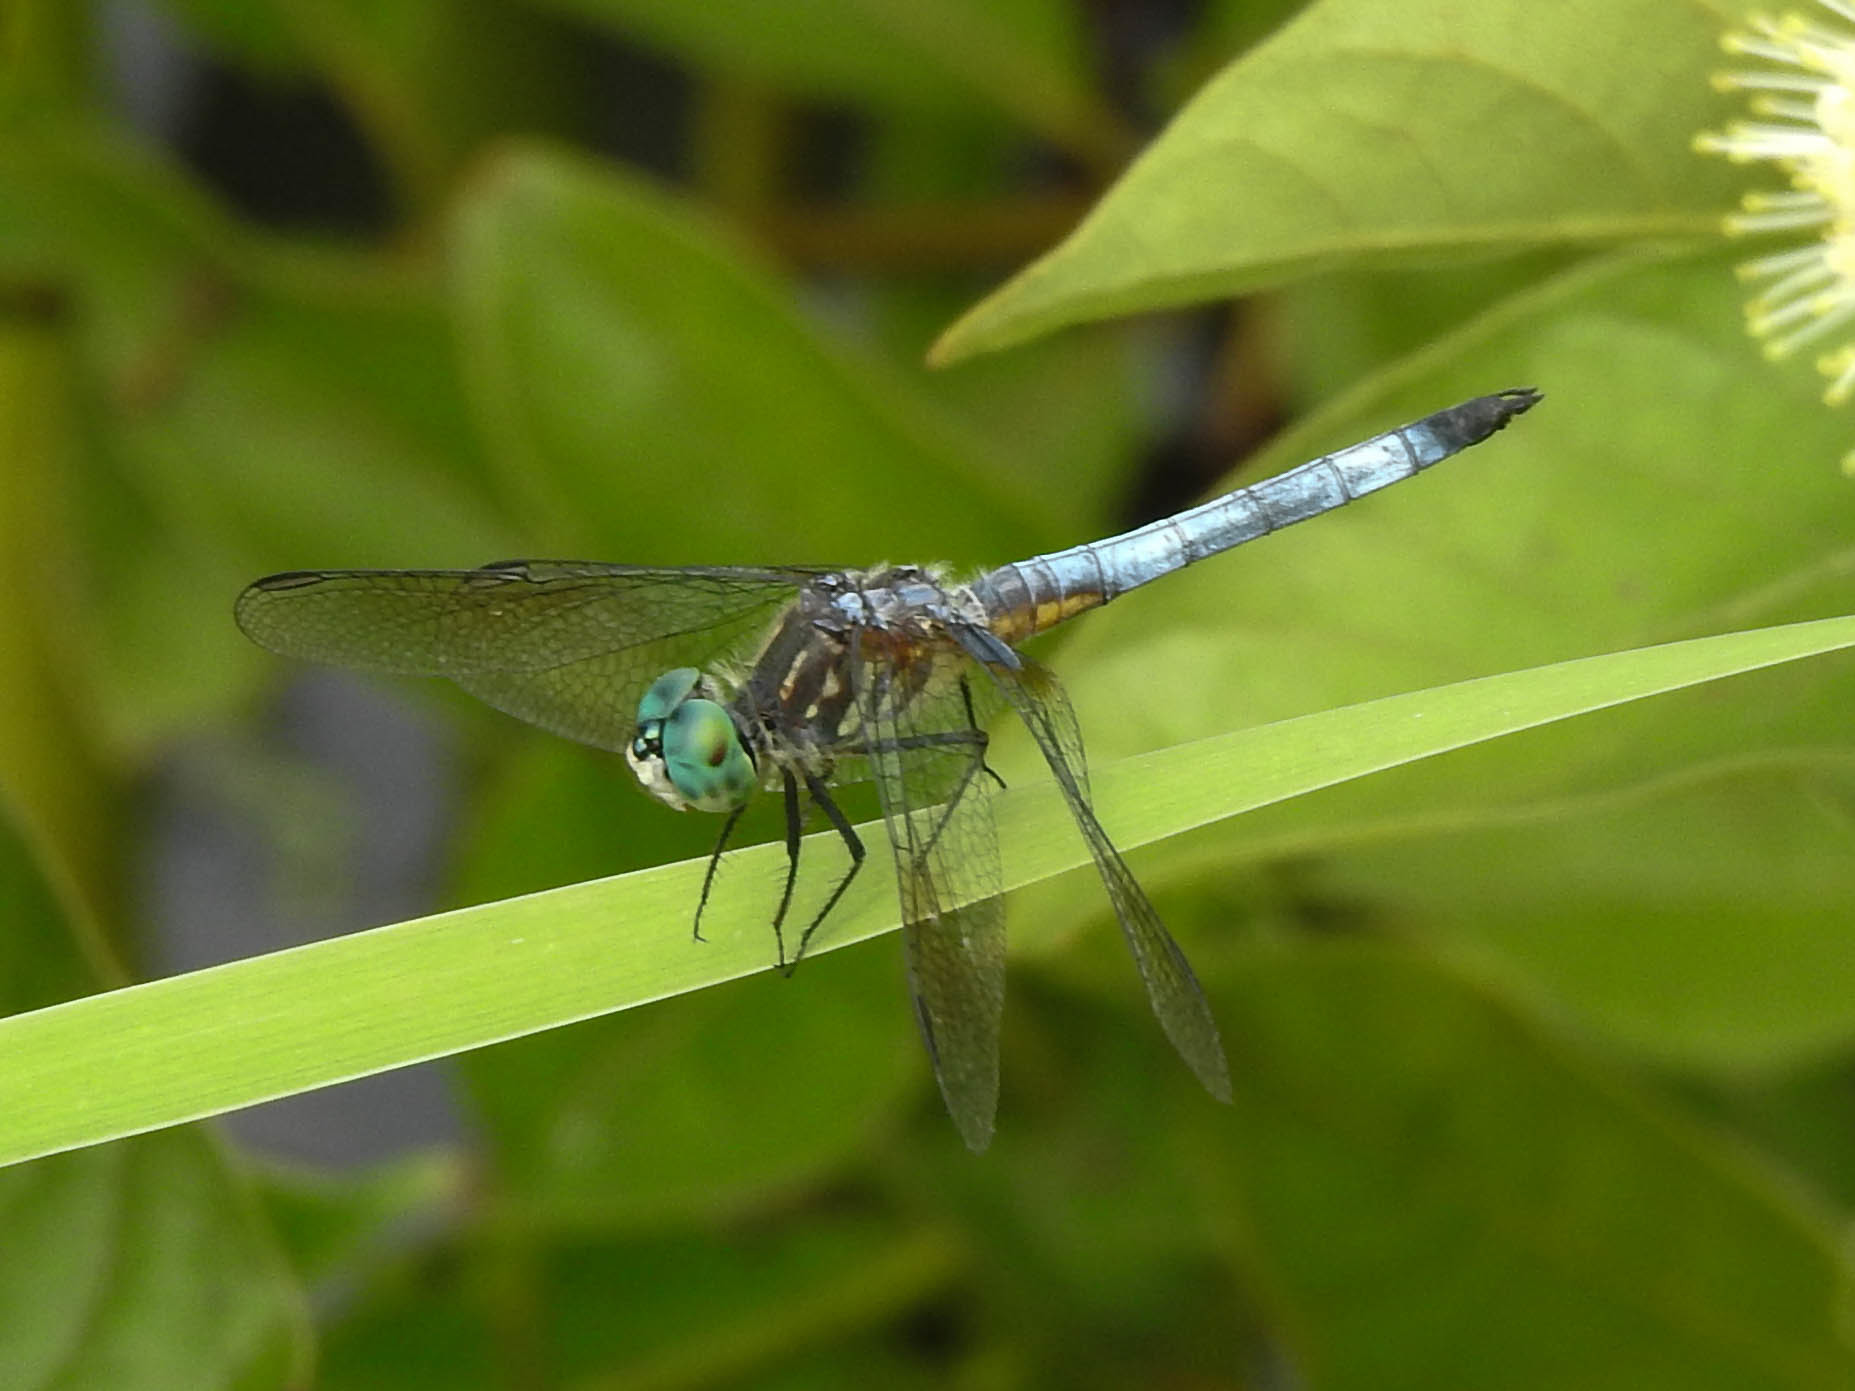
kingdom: Animalia
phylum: Arthropoda
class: Insecta
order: Odonata
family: Libellulidae
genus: Pachydiplax
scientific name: Pachydiplax longipennis
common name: Blue dasher
